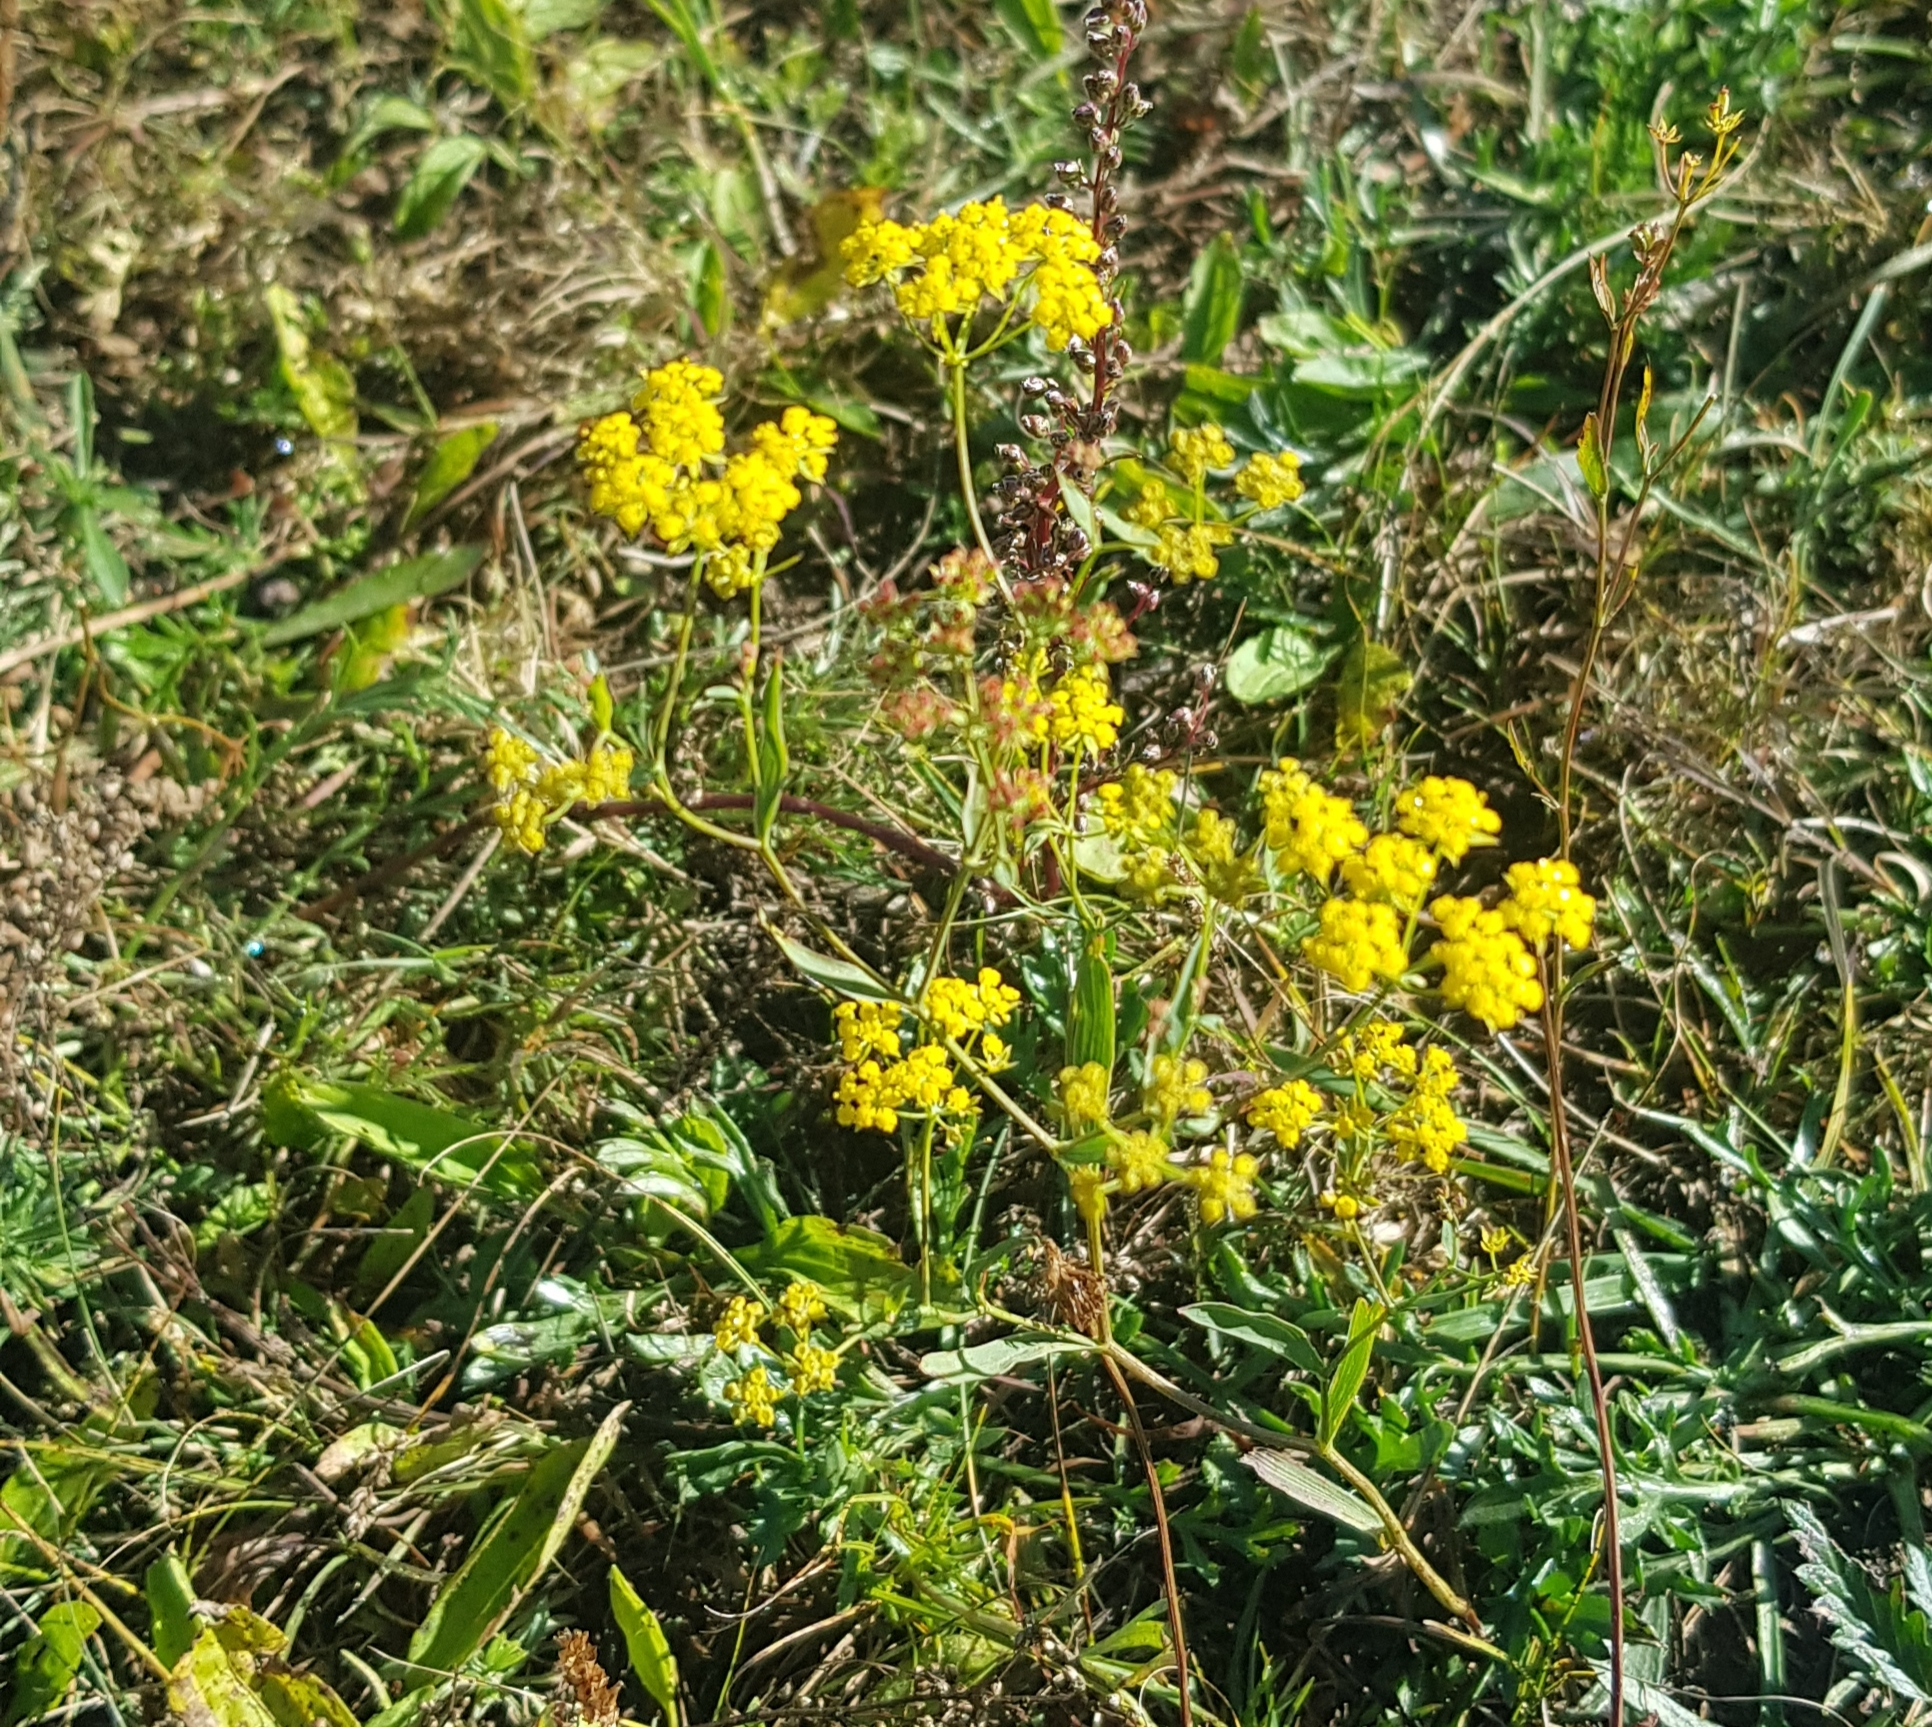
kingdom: Plantae
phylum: Tracheophyta
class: Magnoliopsida
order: Apiales
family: Apiaceae
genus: Bupleurum
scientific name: Bupleurum scorzonerifolium
